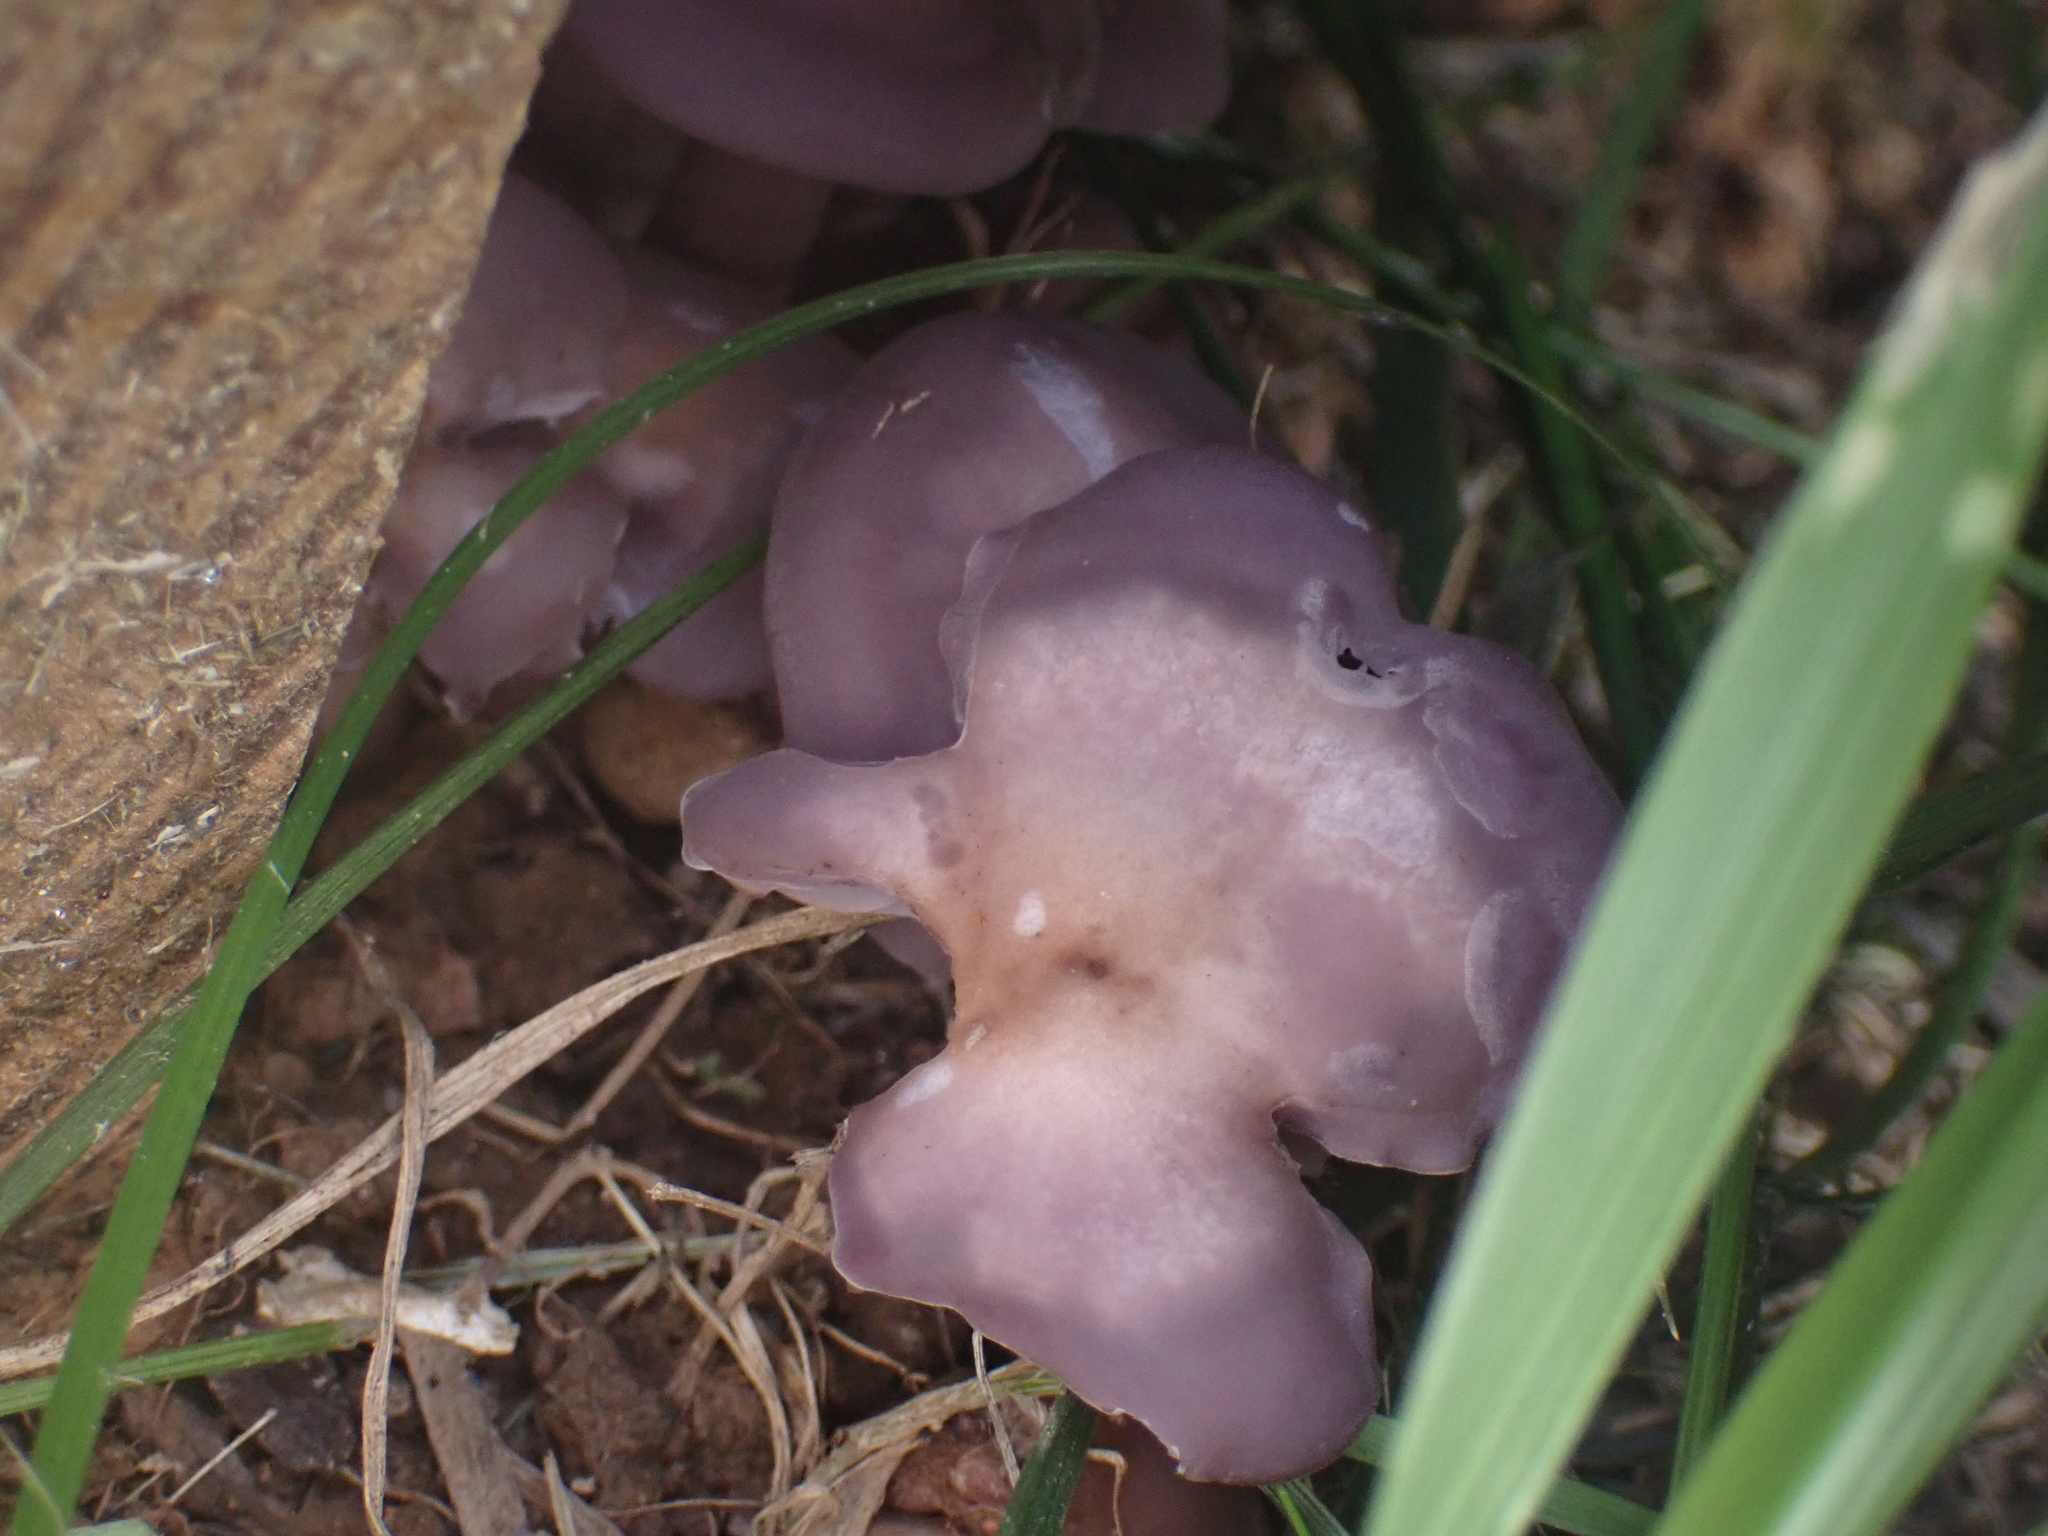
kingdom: Fungi
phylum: Basidiomycota
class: Agaricomycetes
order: Agaricales
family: Tricholomataceae
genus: Collybia
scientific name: Collybia
